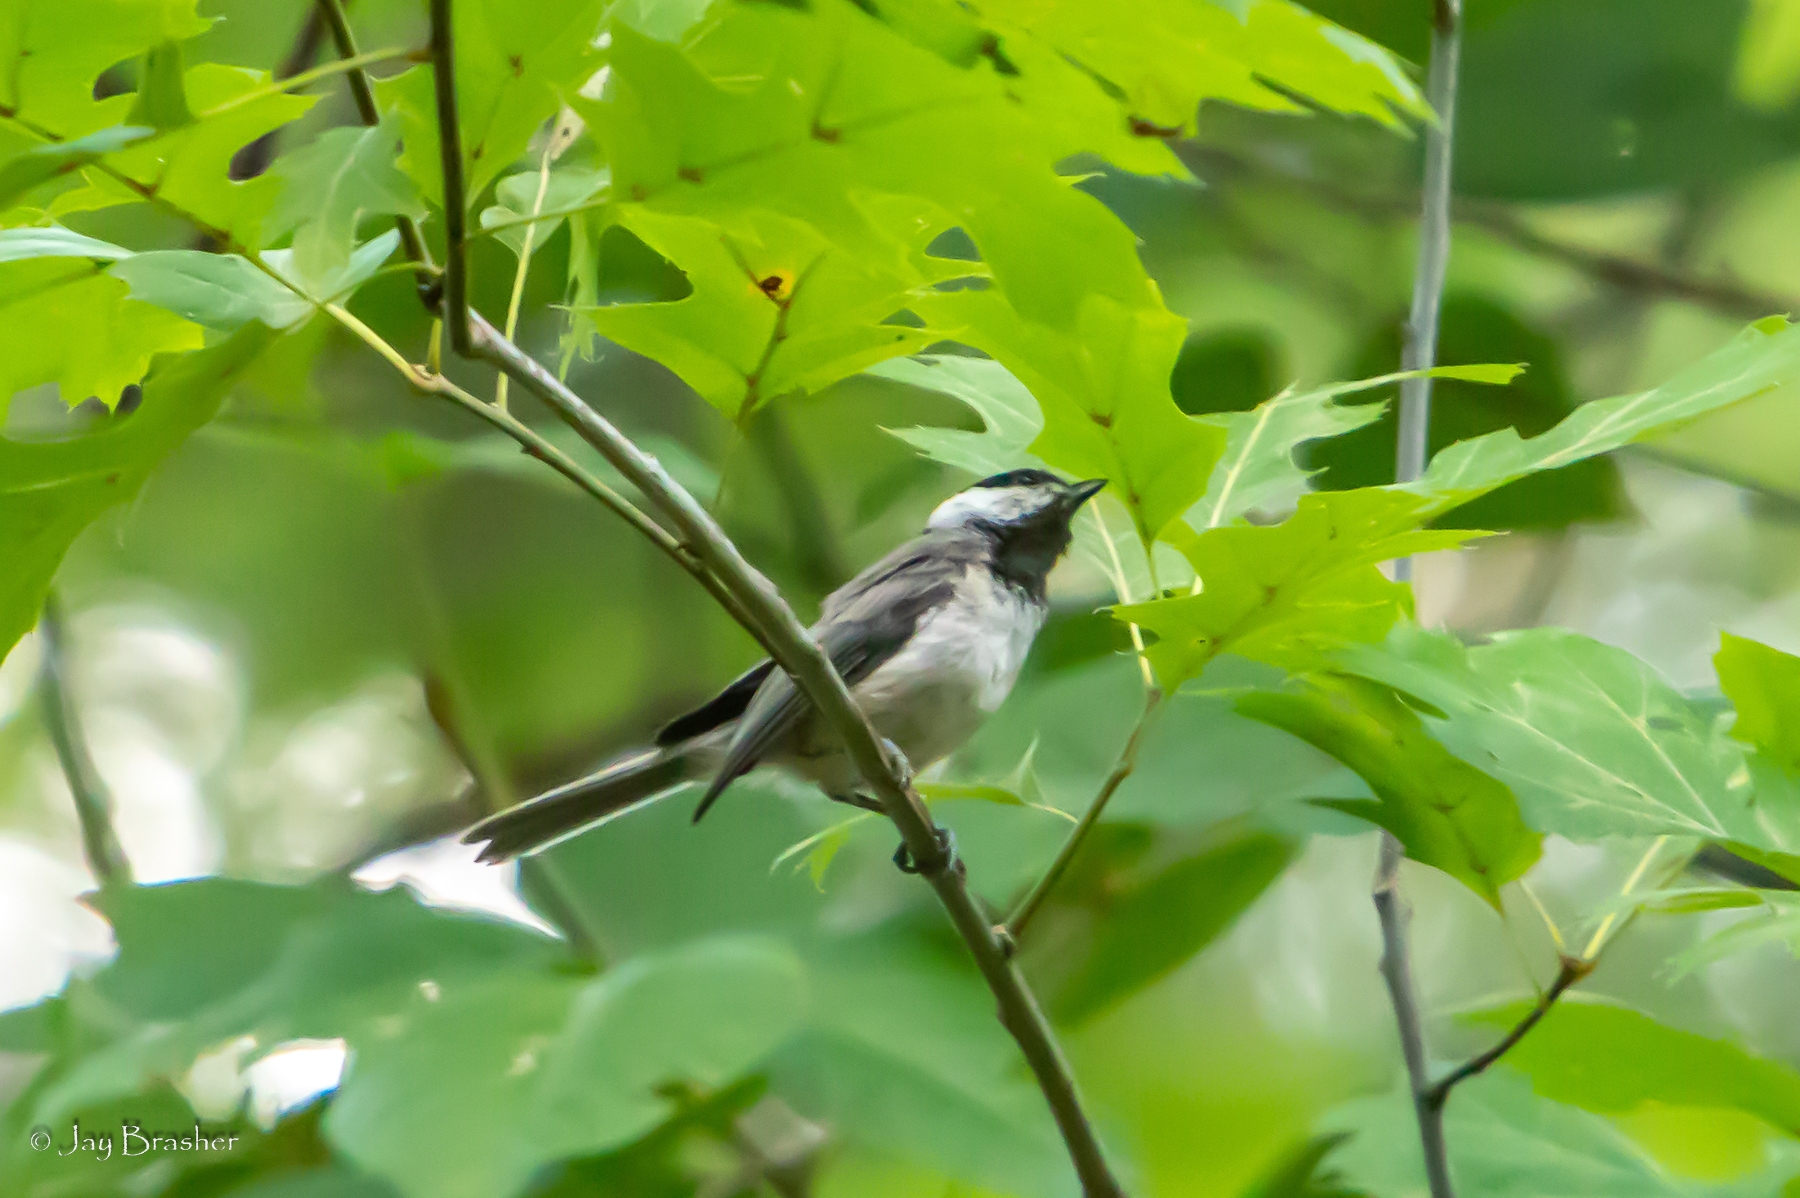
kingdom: Animalia
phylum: Chordata
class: Aves
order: Passeriformes
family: Paridae
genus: Poecile
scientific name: Poecile carolinensis
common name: Carolina chickadee
